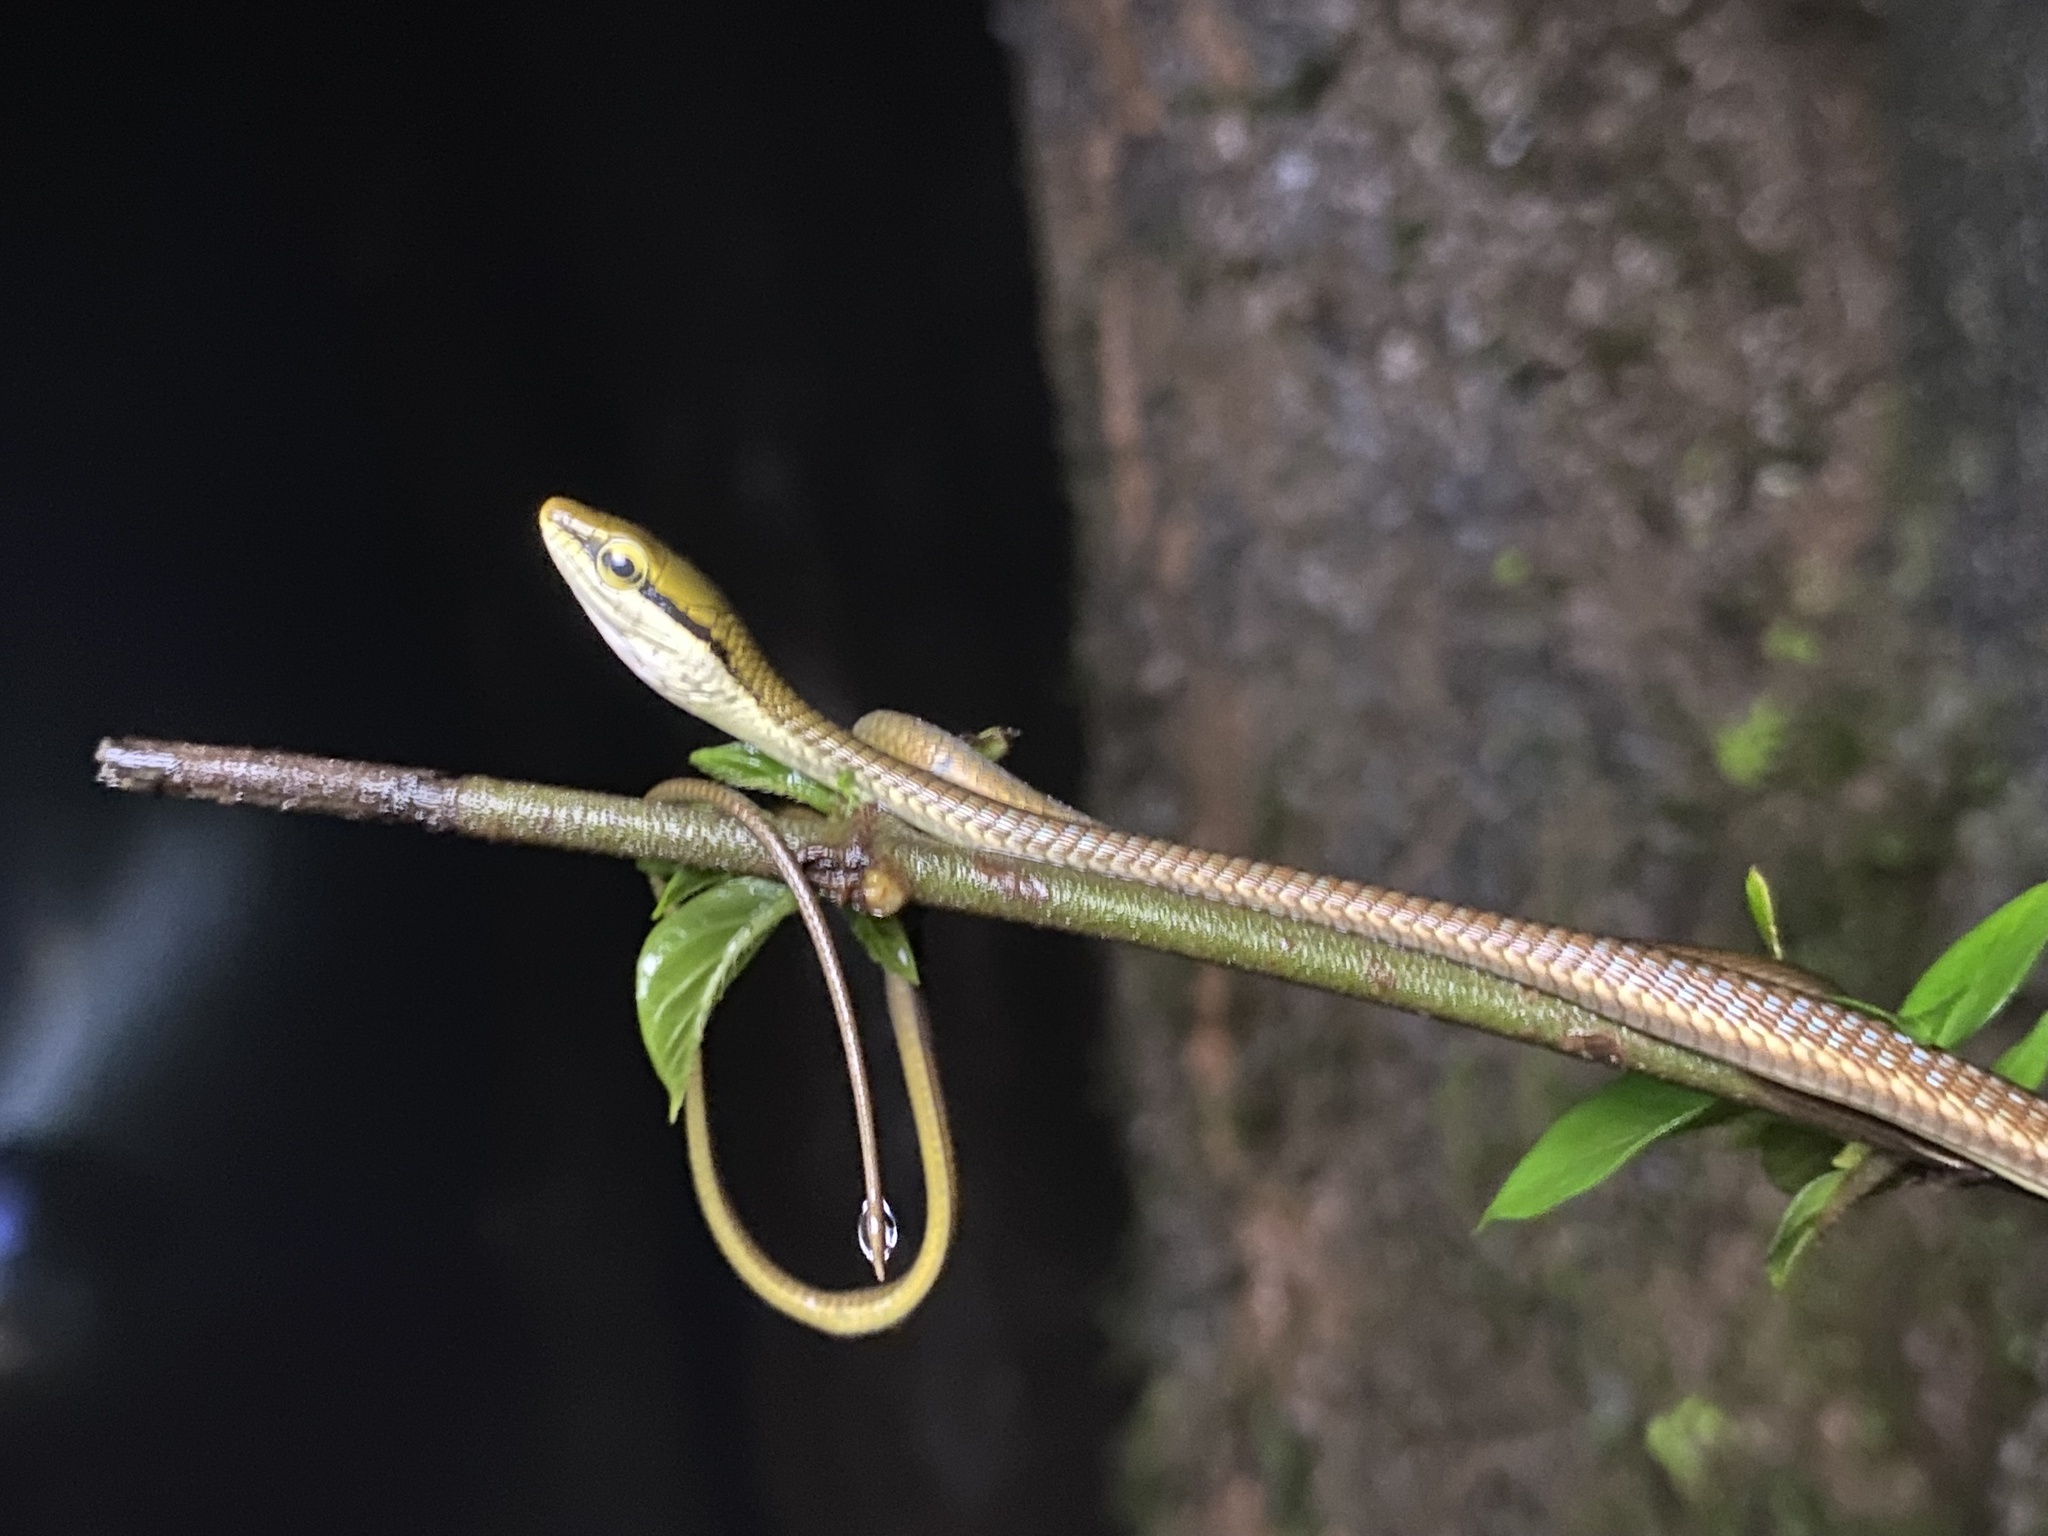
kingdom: Animalia
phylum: Chordata
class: Squamata
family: Colubridae
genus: Dendrelaphis
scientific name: Dendrelaphis girii
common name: Giri's bronzeback tree snake
